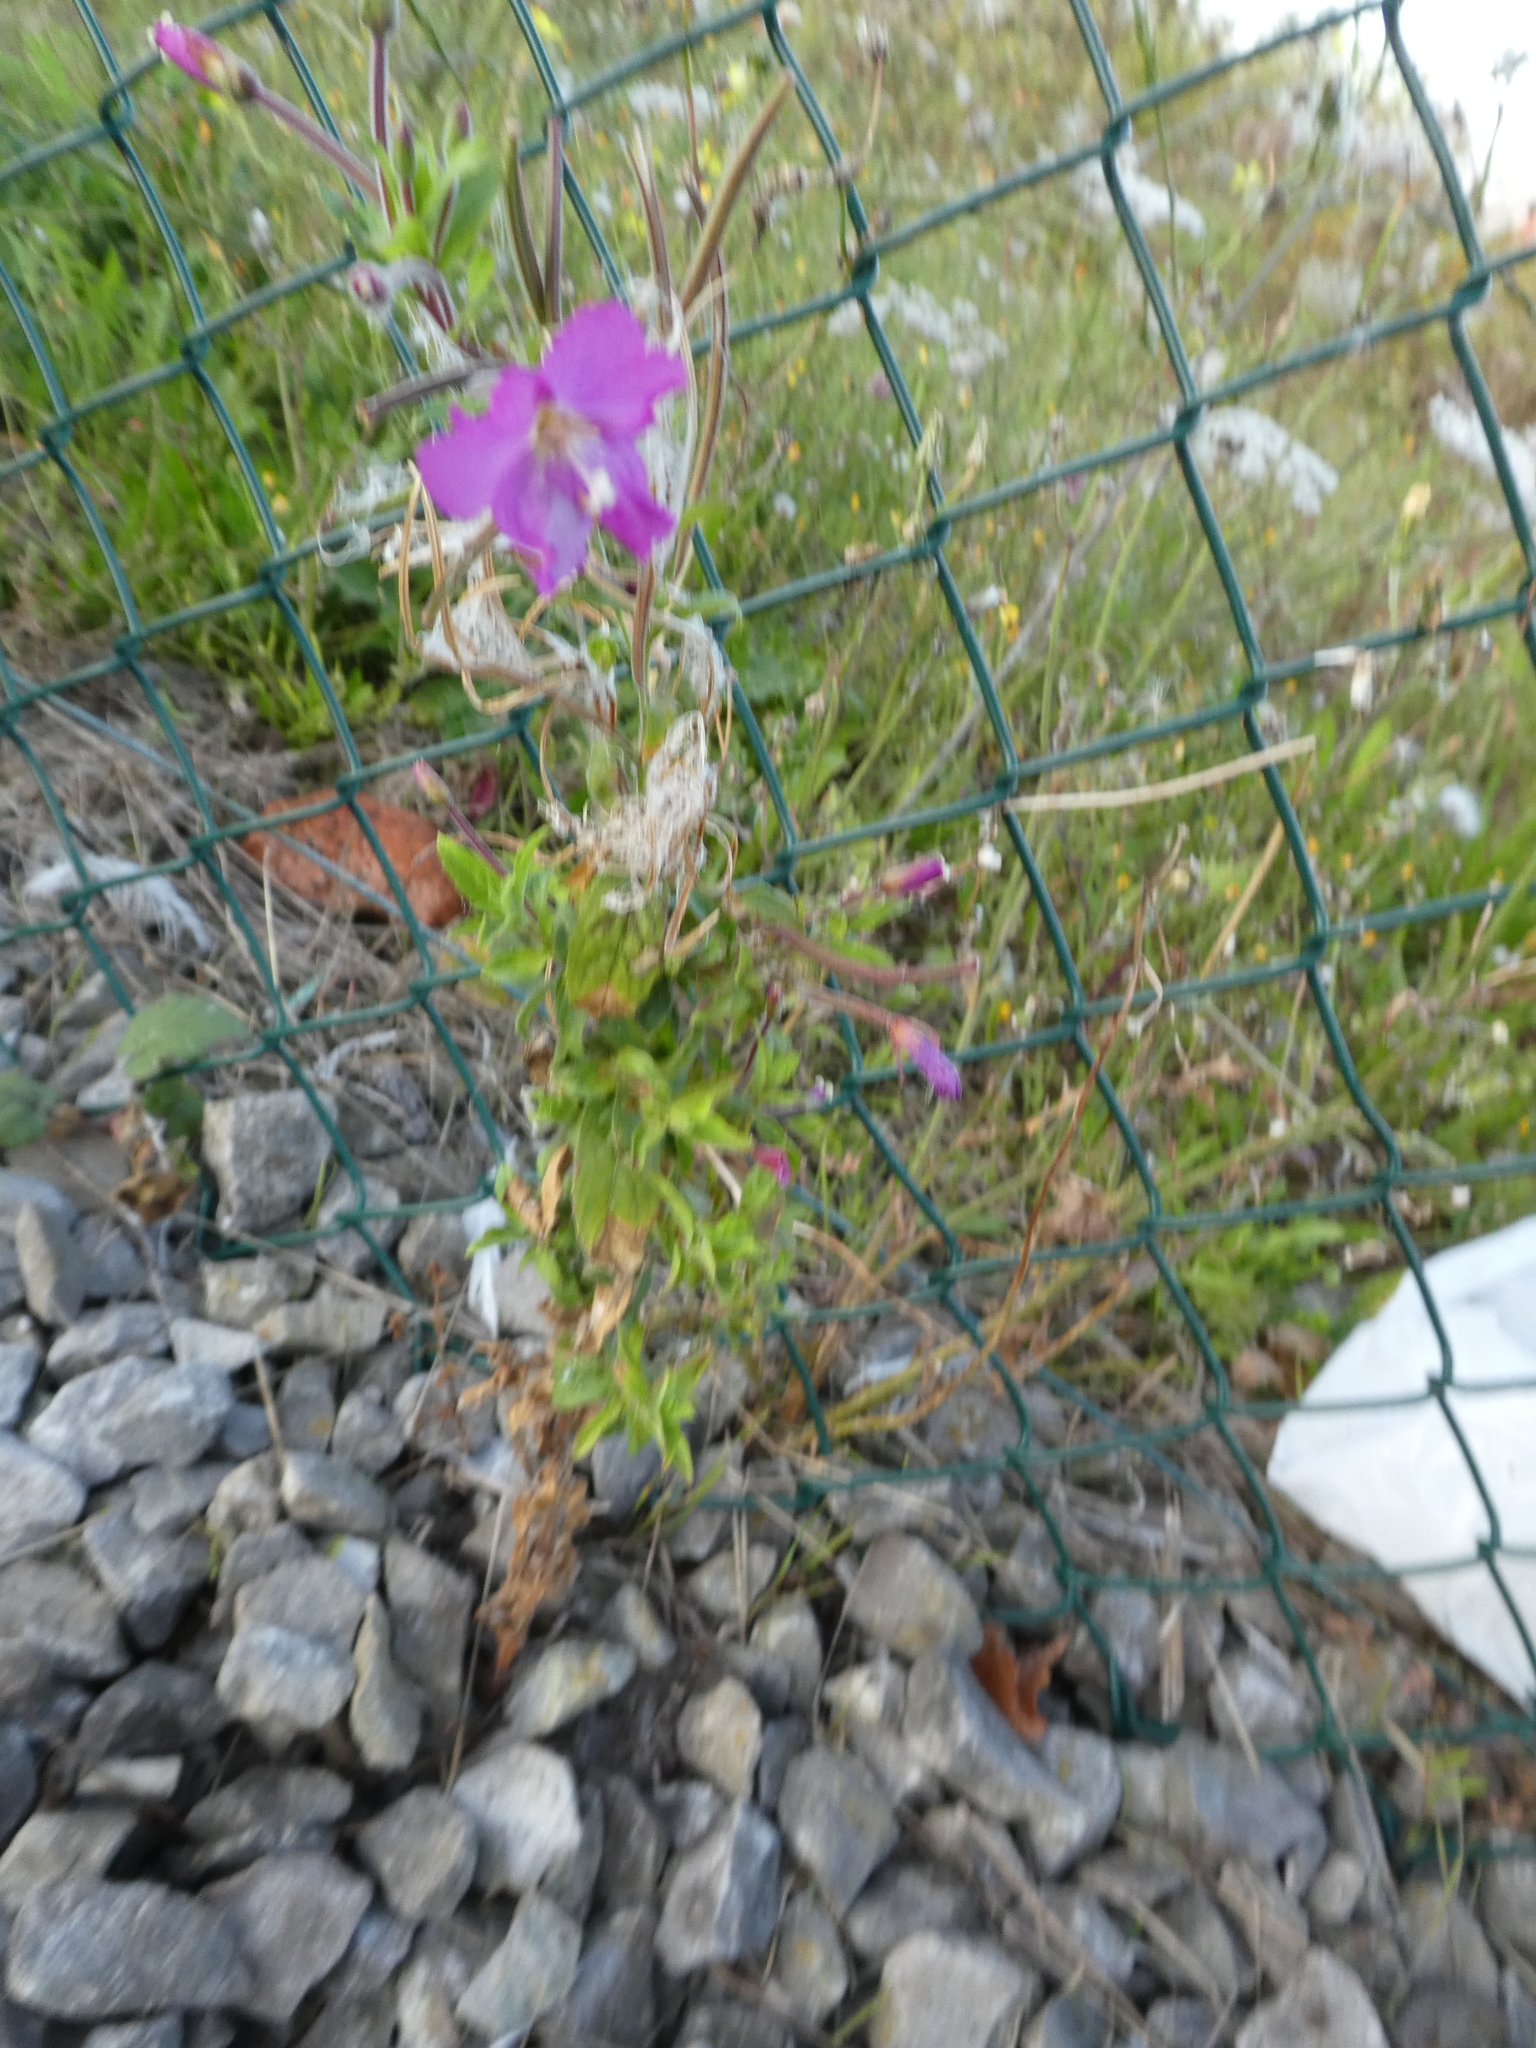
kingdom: Plantae
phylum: Tracheophyta
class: Magnoliopsida
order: Myrtales
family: Onagraceae
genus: Epilobium
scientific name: Epilobium hirsutum
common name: Great willowherb
